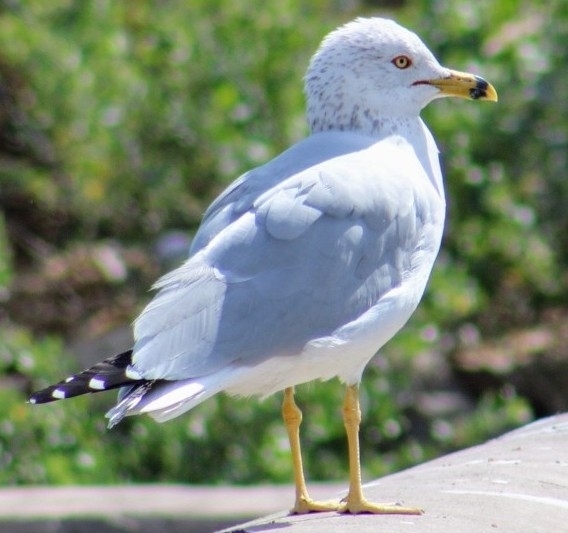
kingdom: Animalia
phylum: Chordata
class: Aves
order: Charadriiformes
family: Laridae
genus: Larus
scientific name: Larus delawarensis
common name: Ring-billed gull
